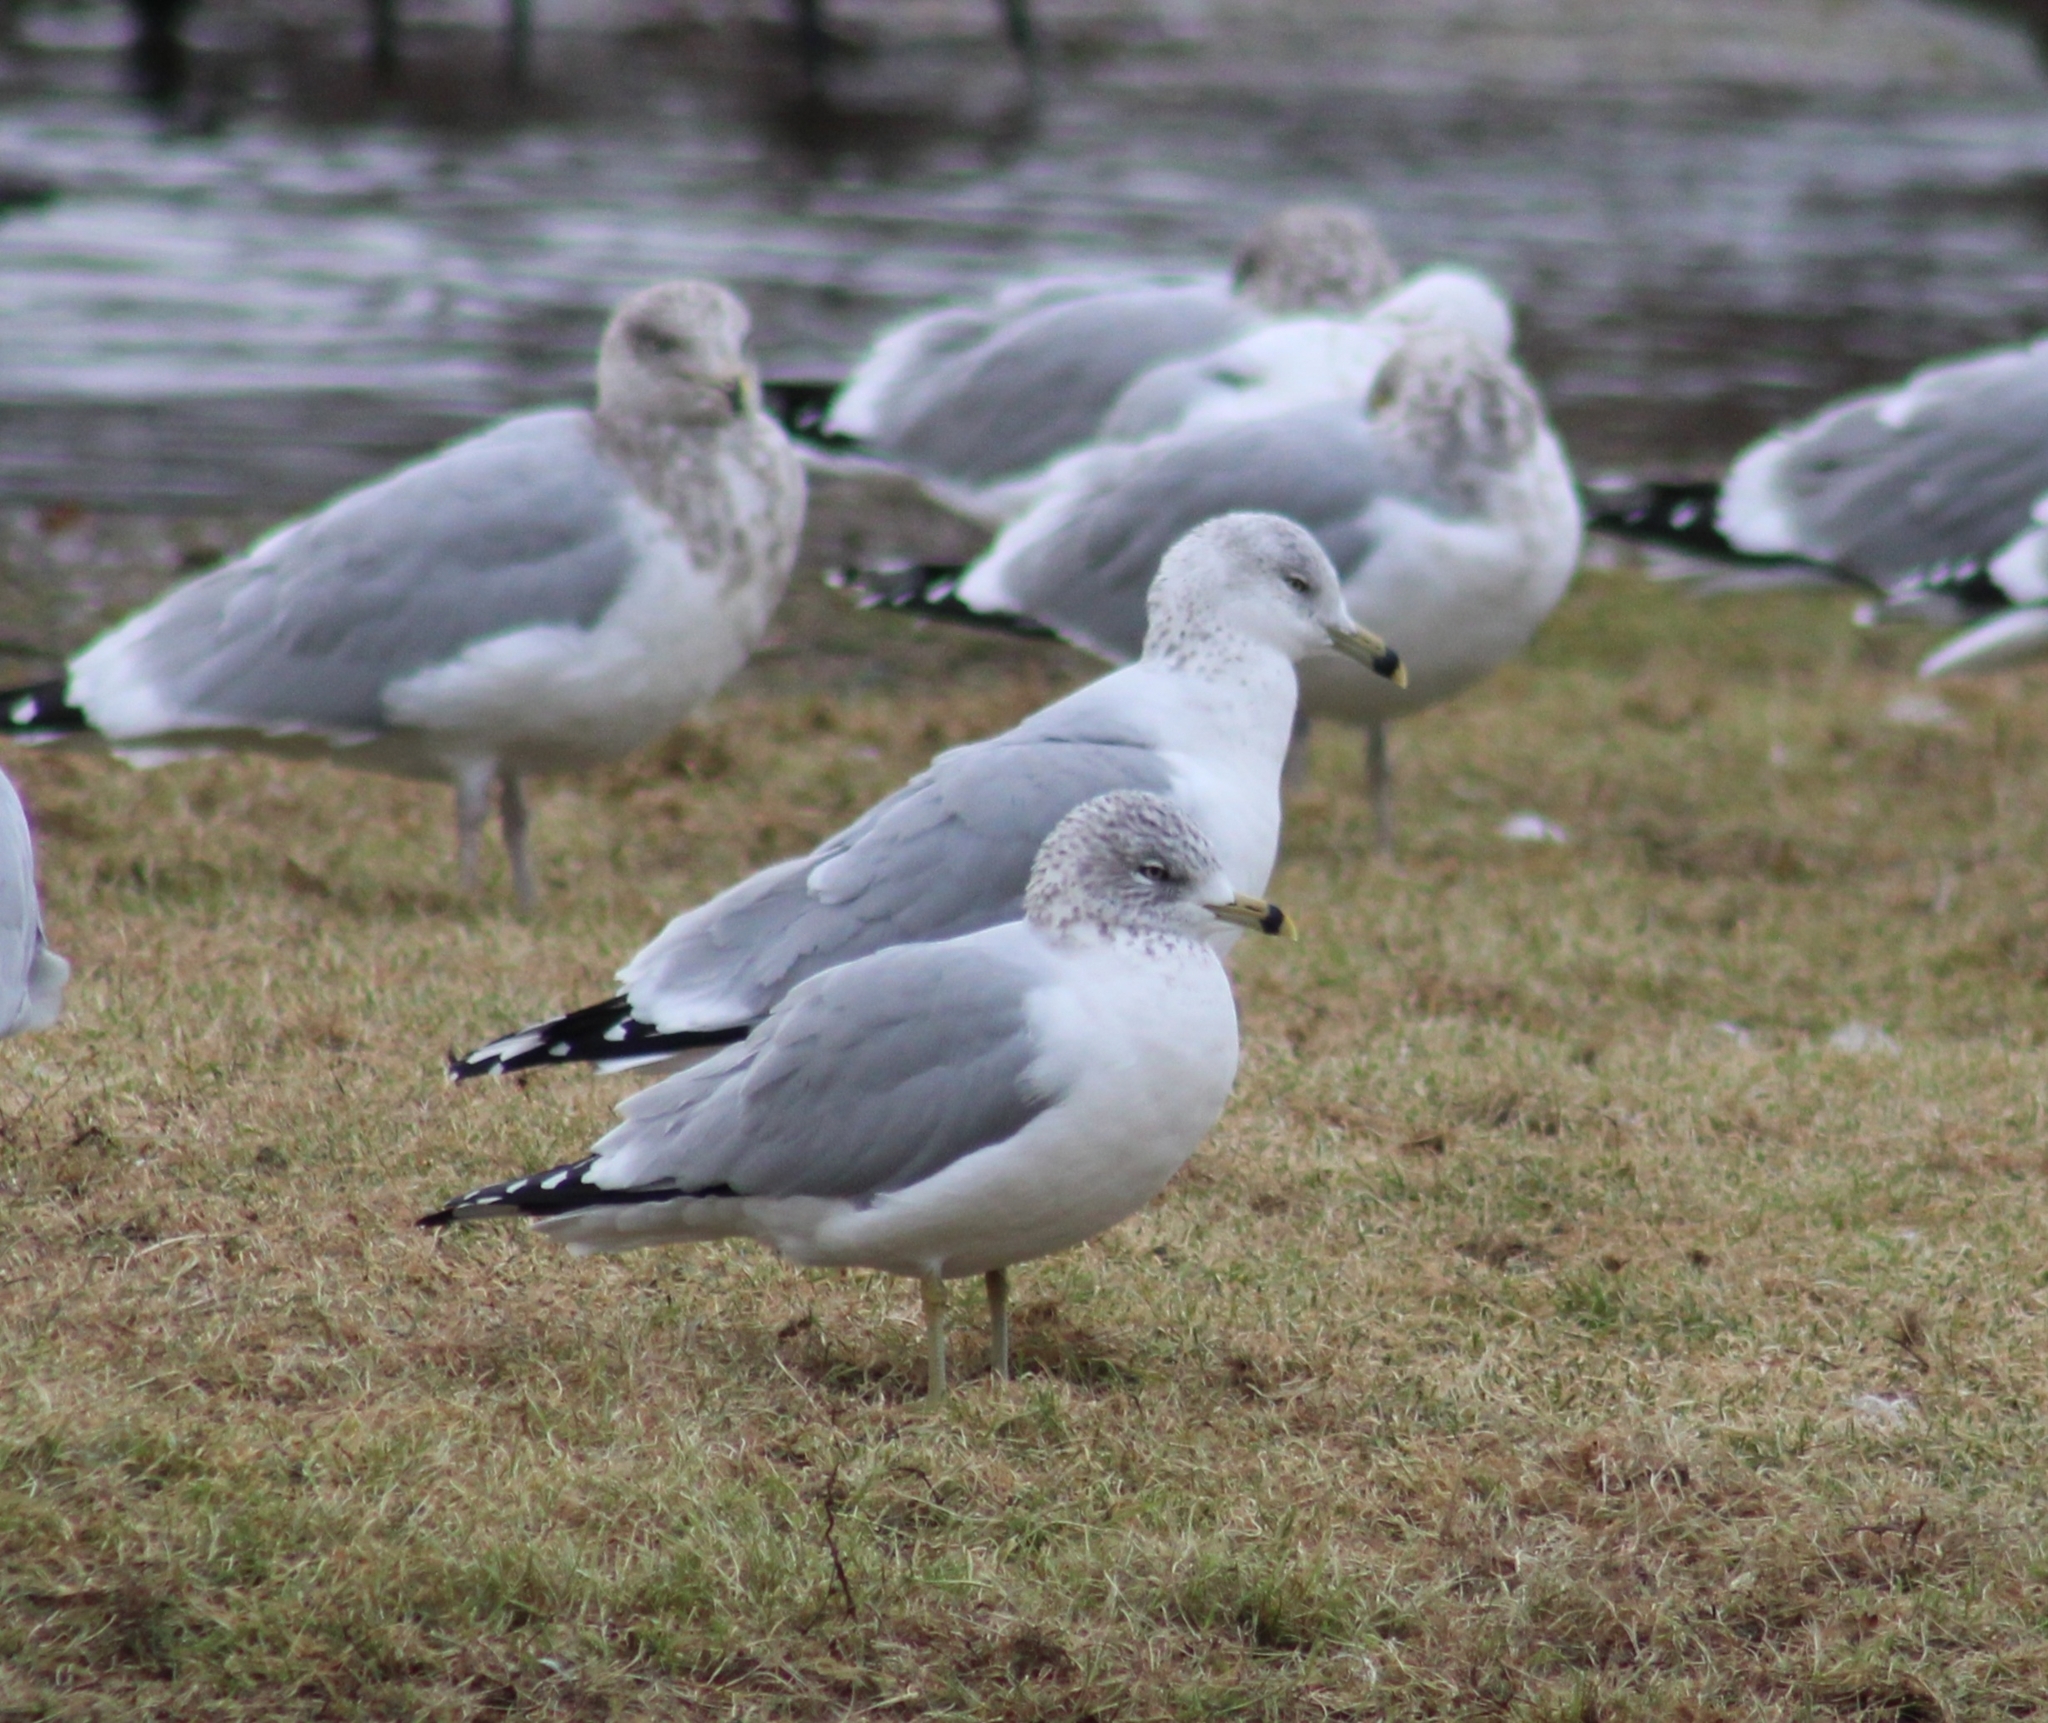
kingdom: Animalia
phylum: Chordata
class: Aves
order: Charadriiformes
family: Laridae
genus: Larus
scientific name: Larus delawarensis
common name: Ring-billed gull
